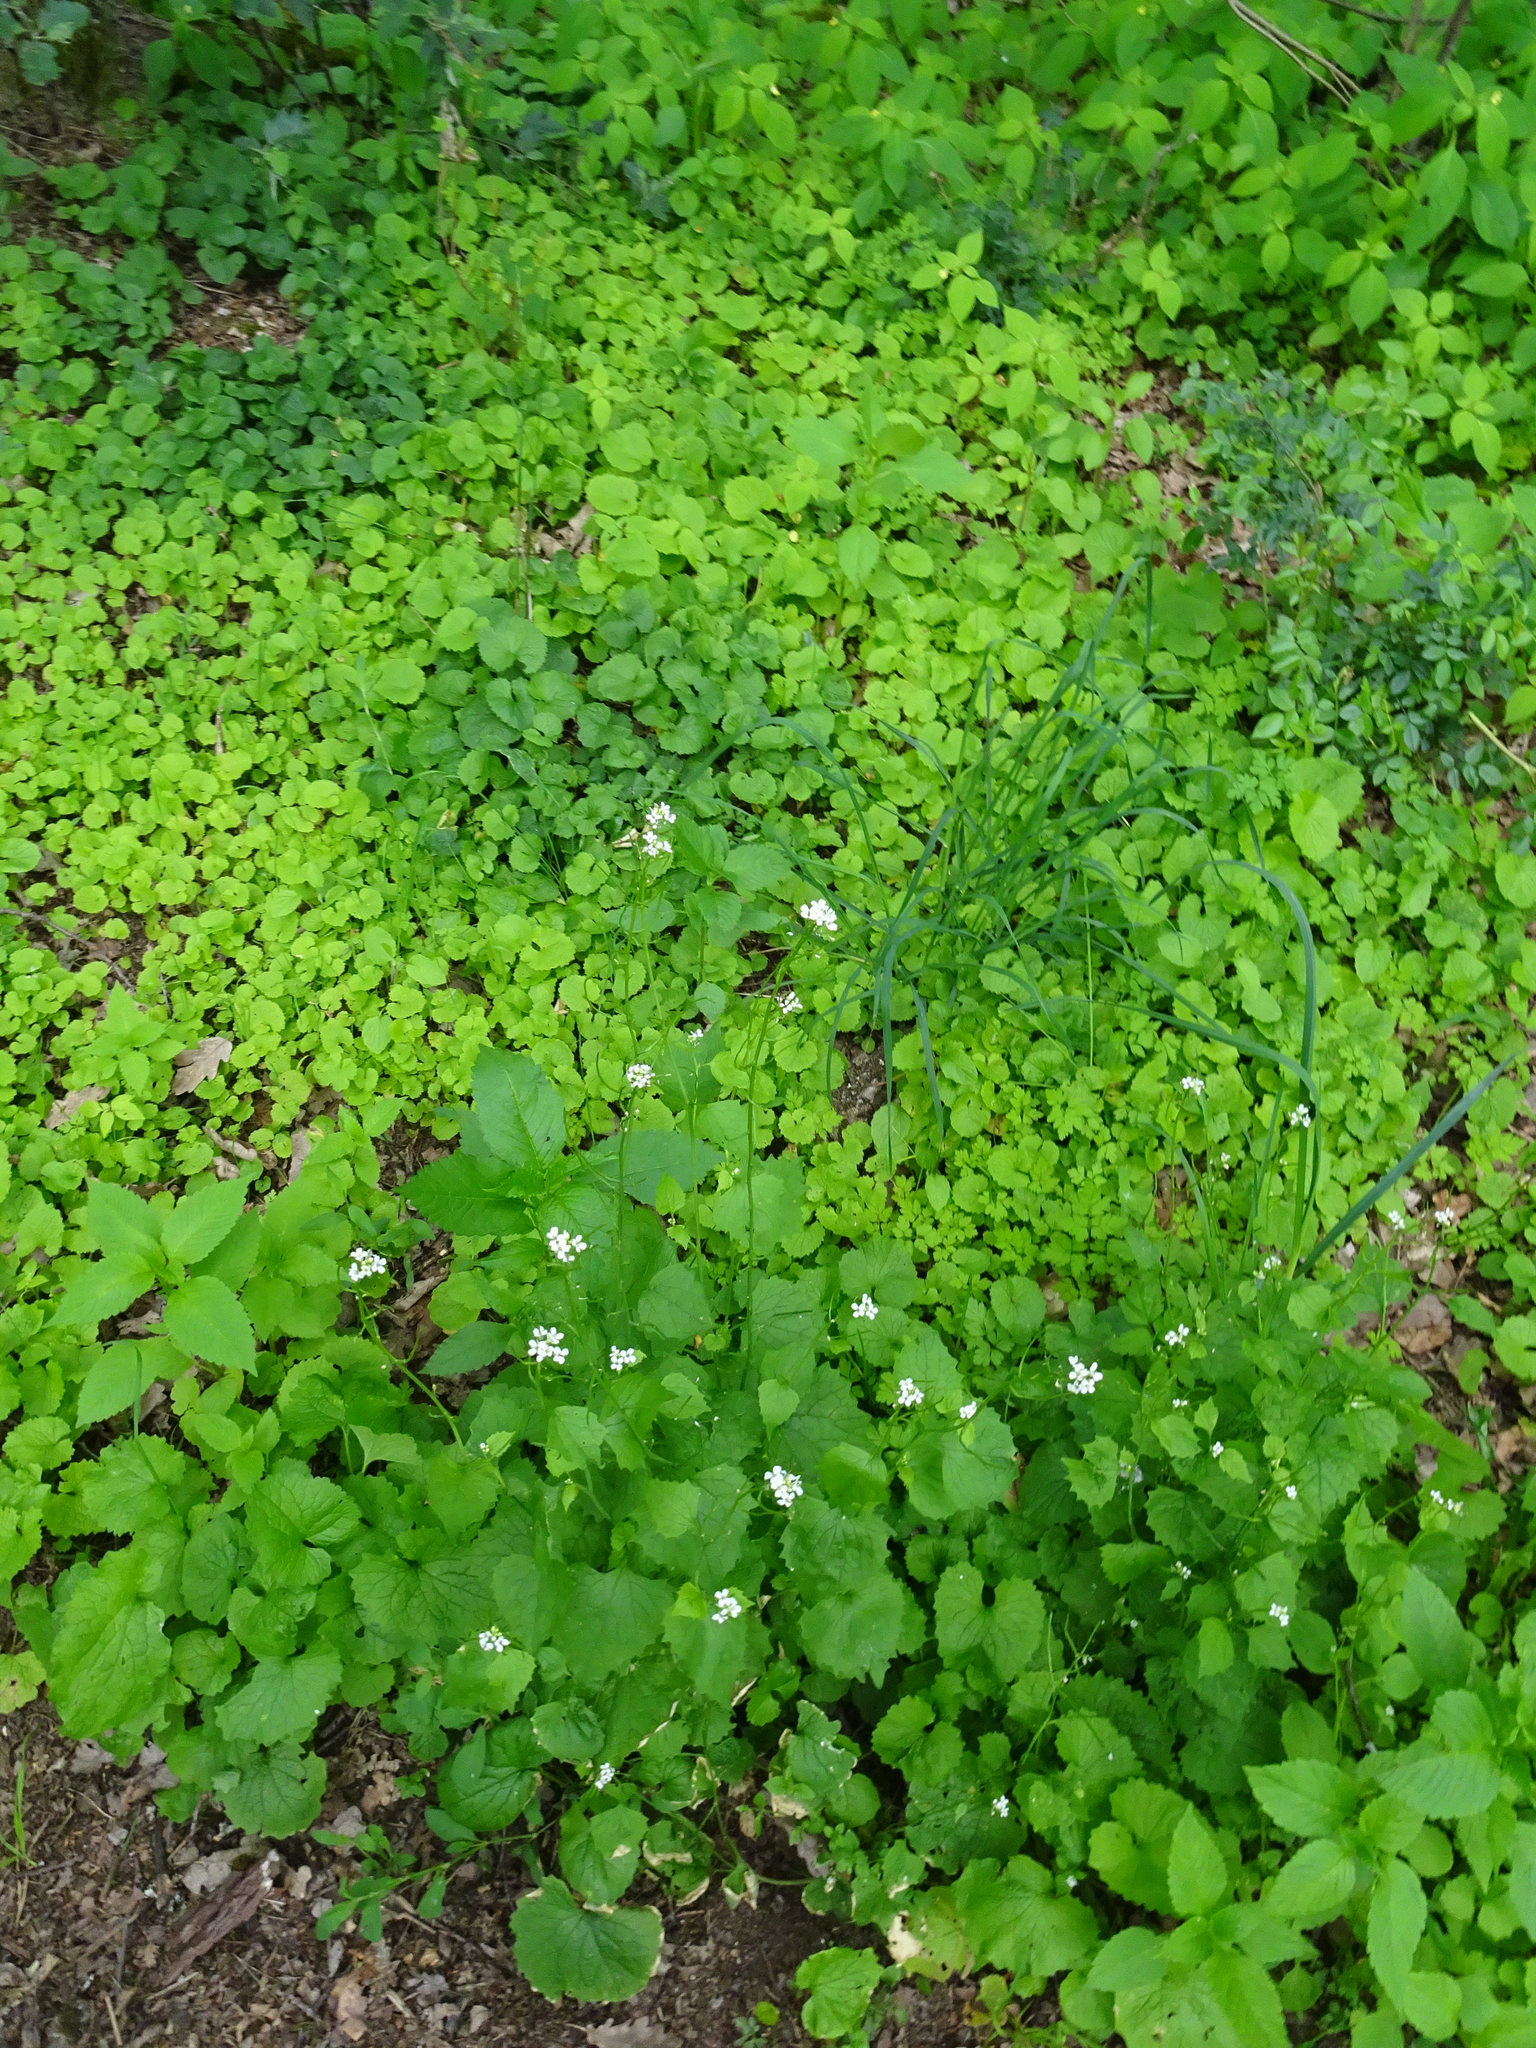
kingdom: Plantae
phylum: Tracheophyta
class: Magnoliopsida
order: Brassicales
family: Brassicaceae
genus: Alliaria
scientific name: Alliaria petiolata
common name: Garlic mustard
